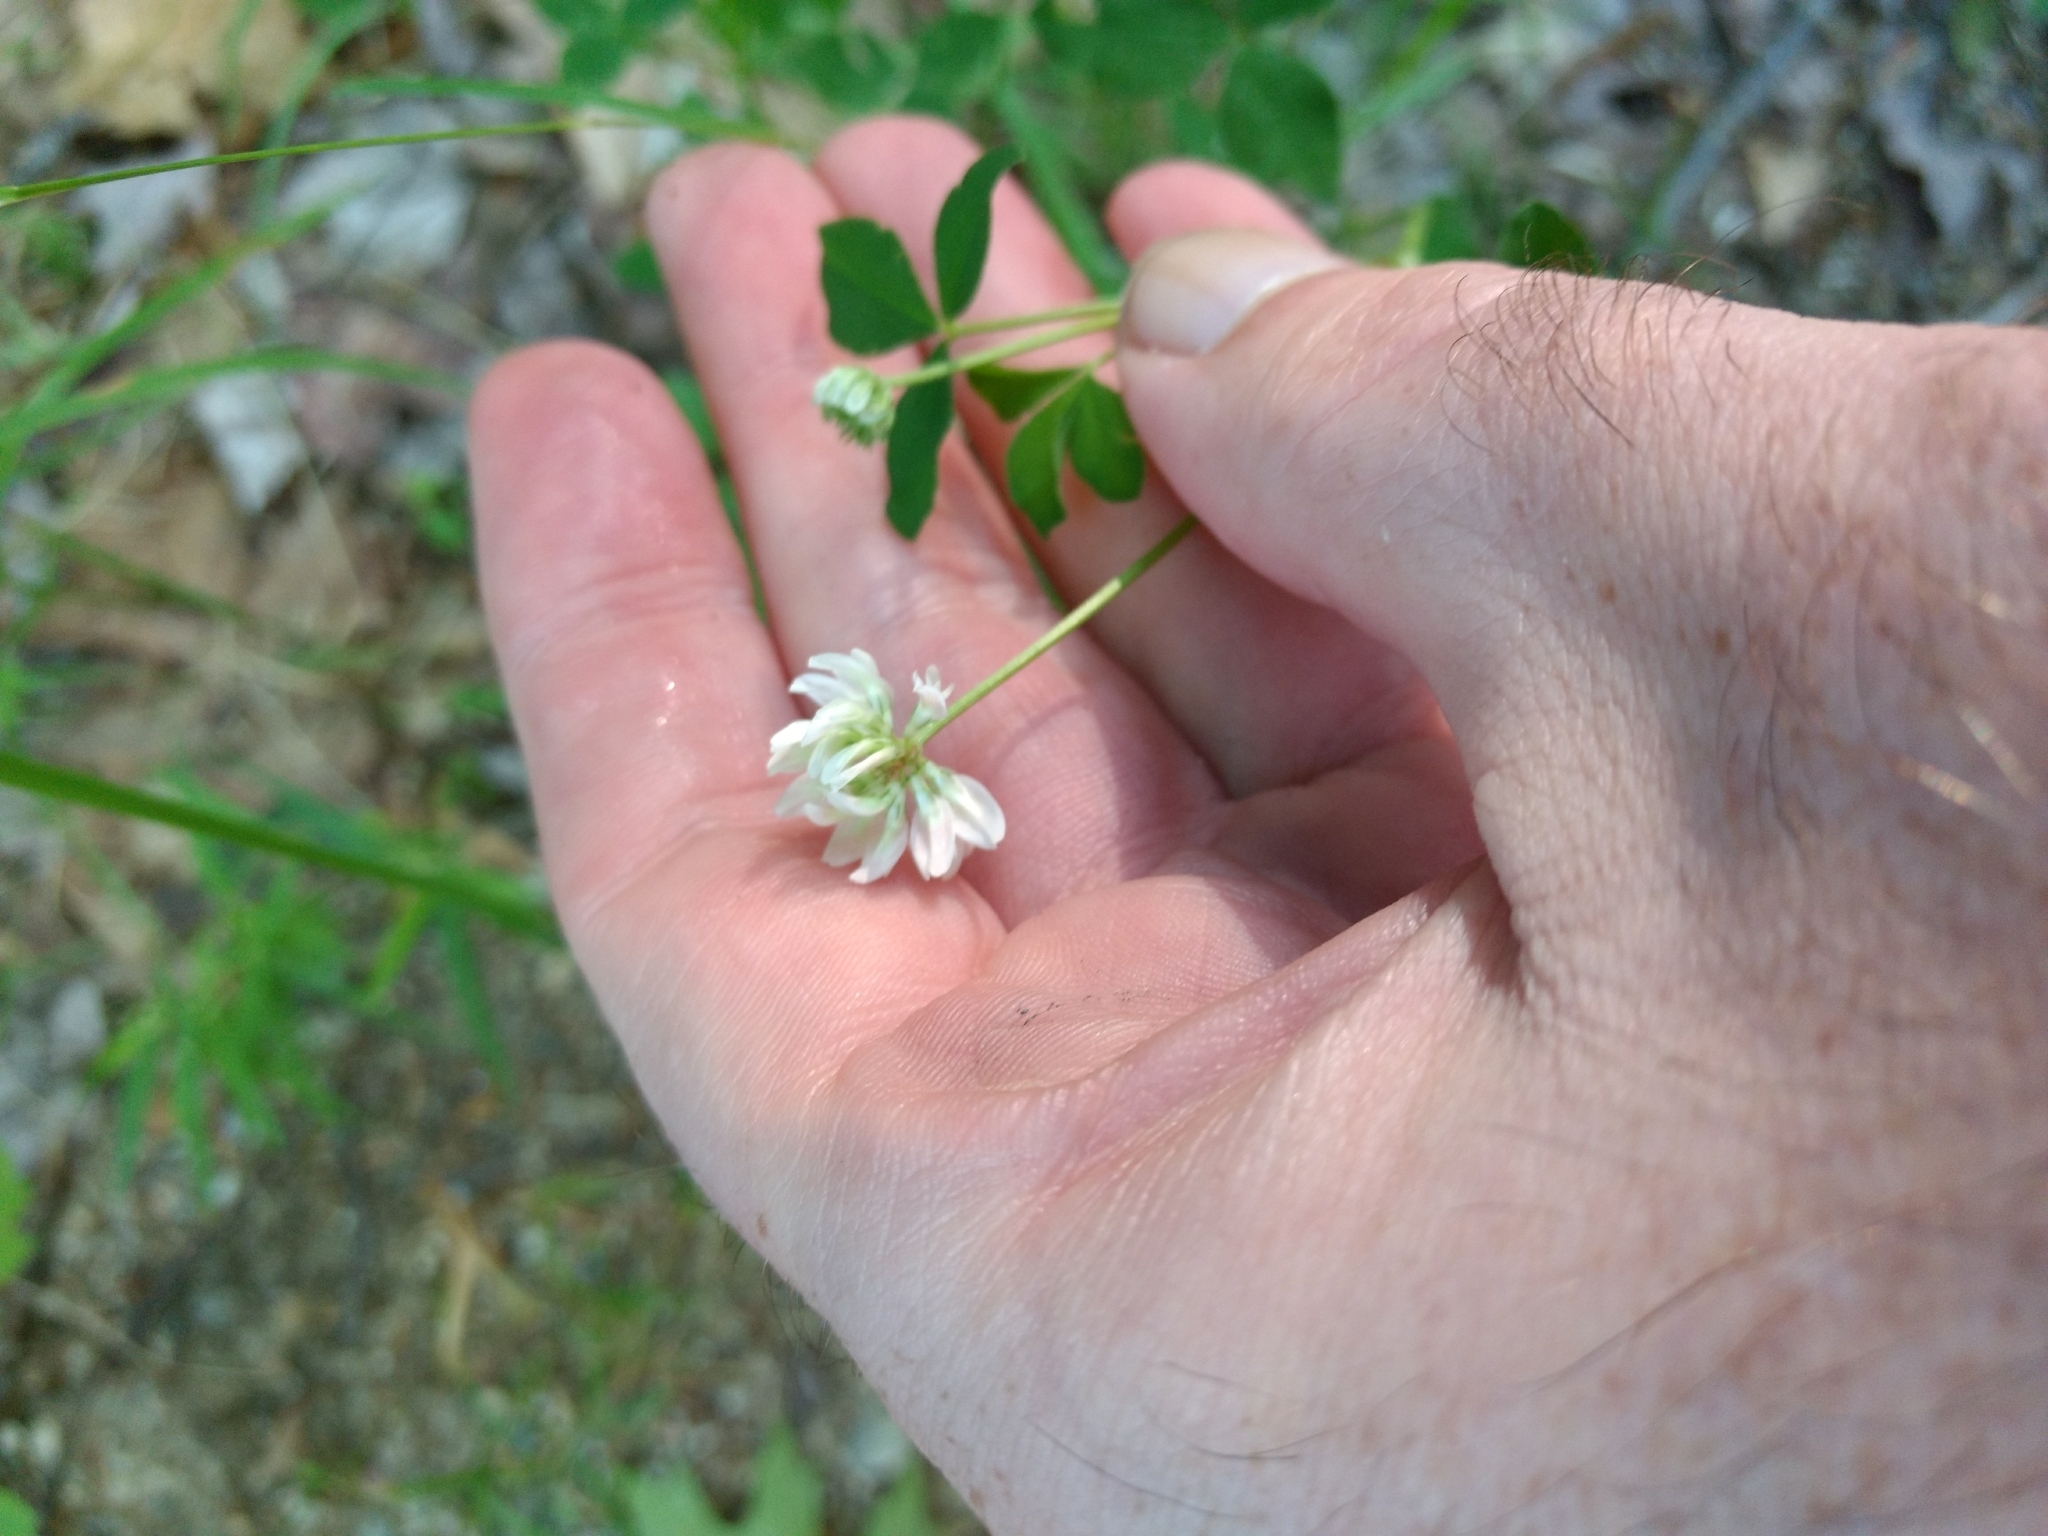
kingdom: Plantae
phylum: Tracheophyta
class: Magnoliopsida
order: Fabales
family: Fabaceae
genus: Trifolium
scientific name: Trifolium hybridum
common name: Alsike clover
